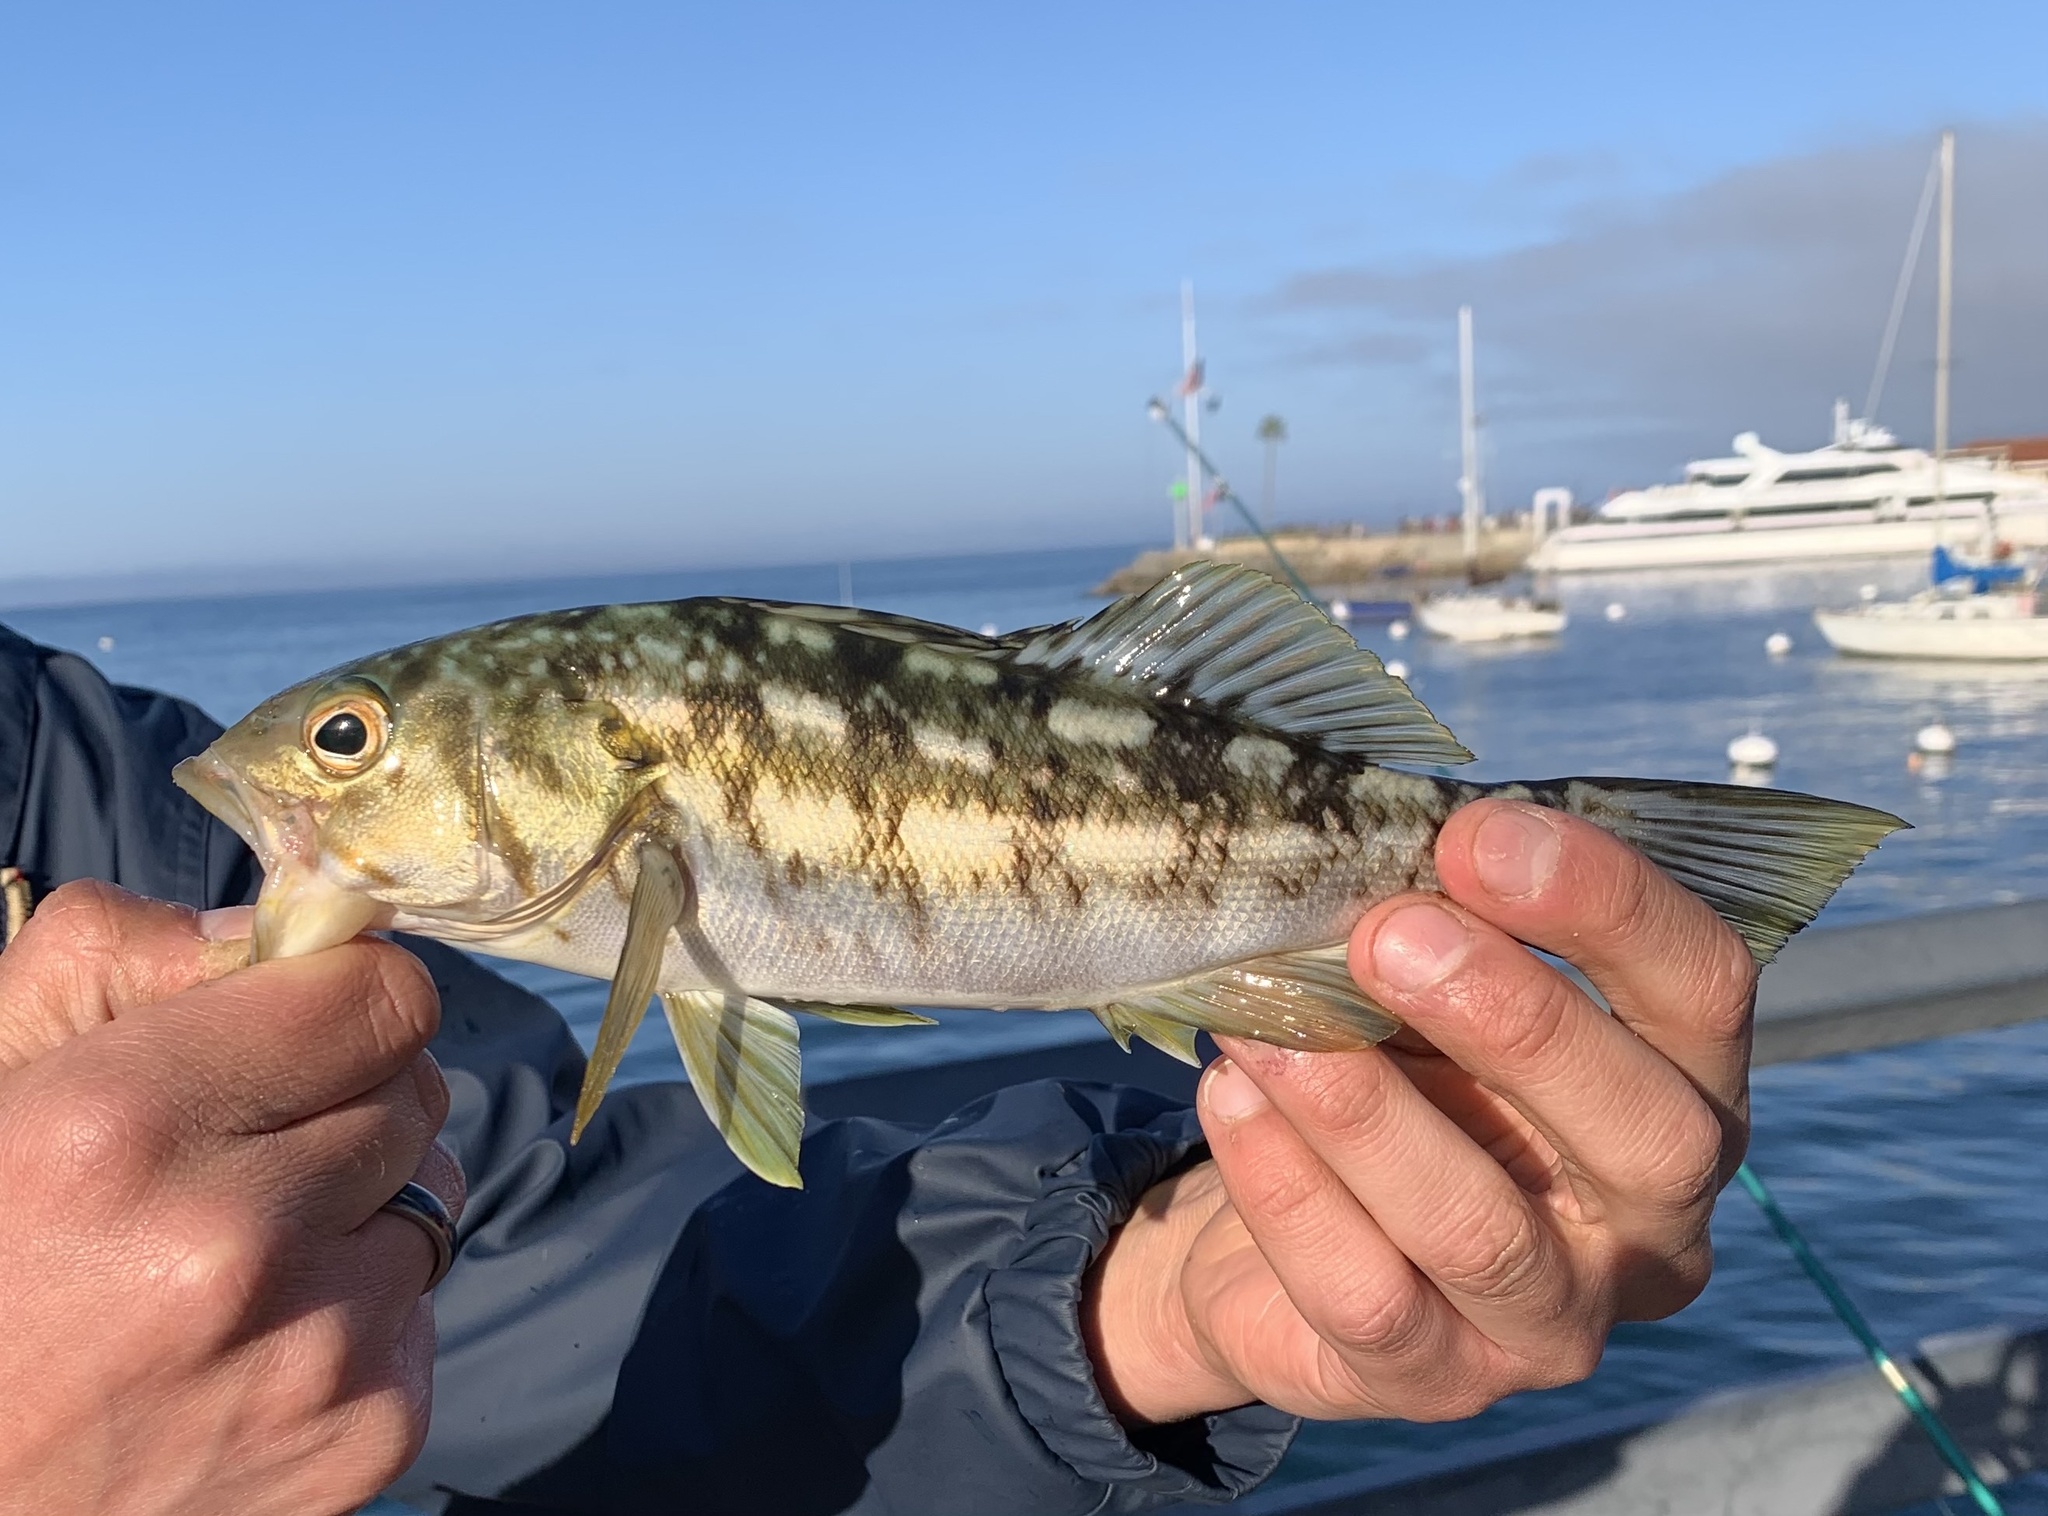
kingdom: Animalia
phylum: Chordata
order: Perciformes
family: Serranidae
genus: Paralabrax
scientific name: Paralabrax clathratus
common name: Kelp bass
